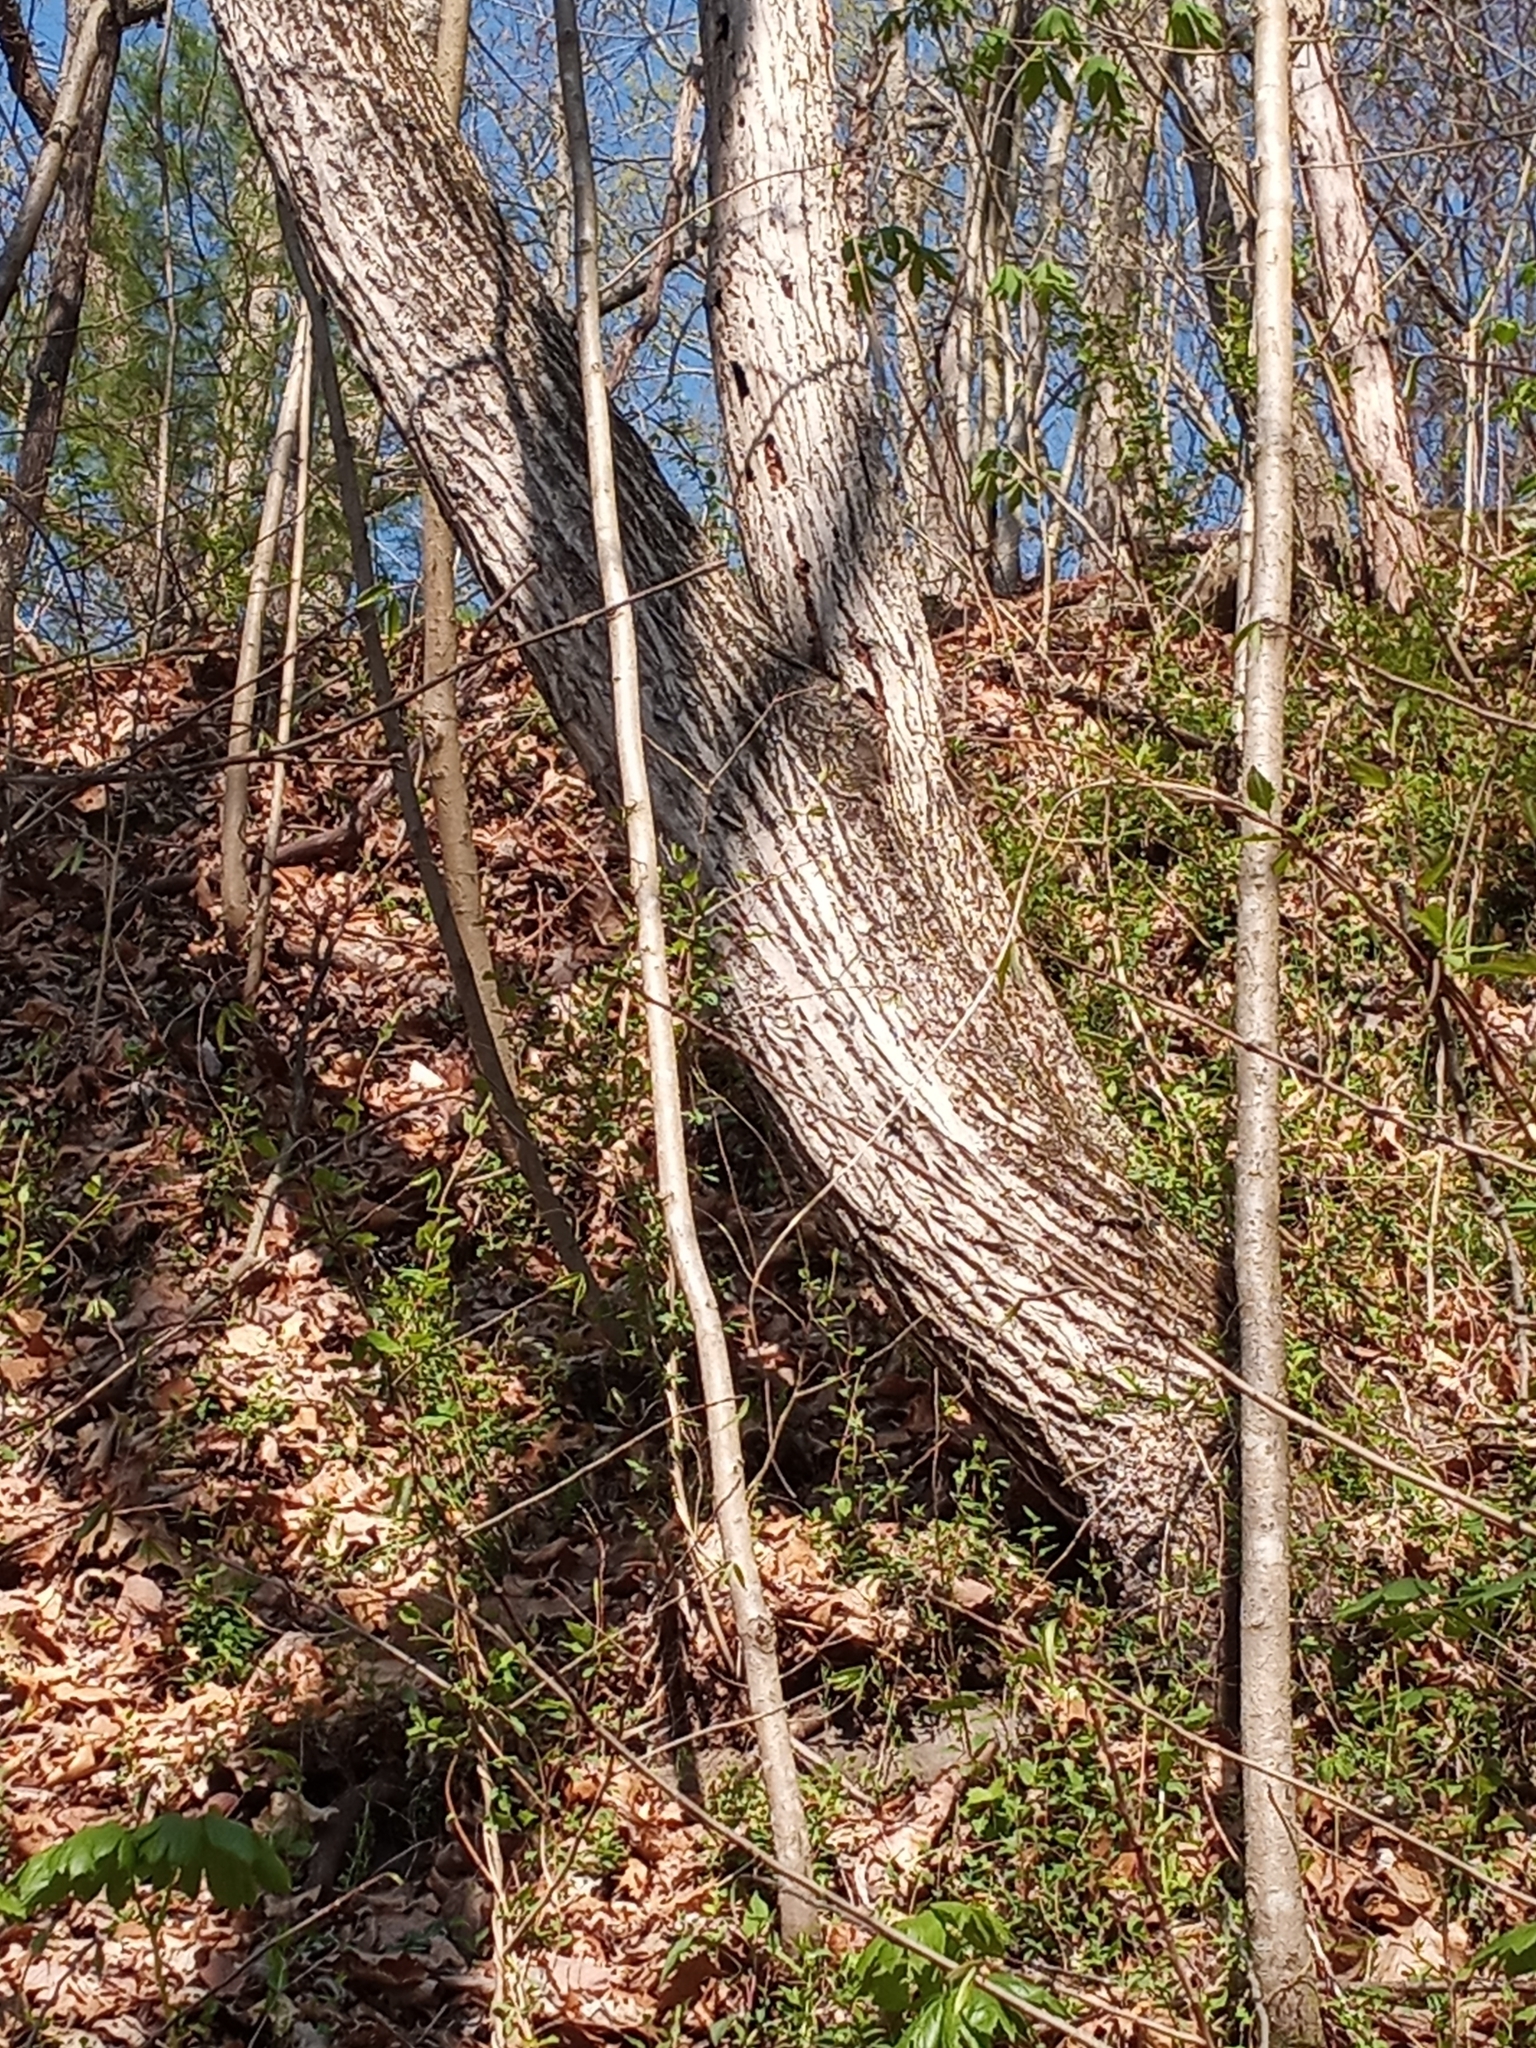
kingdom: Plantae
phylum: Tracheophyta
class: Magnoliopsida
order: Fagales
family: Juglandaceae
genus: Juglans
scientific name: Juglans cinerea
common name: Butternut
